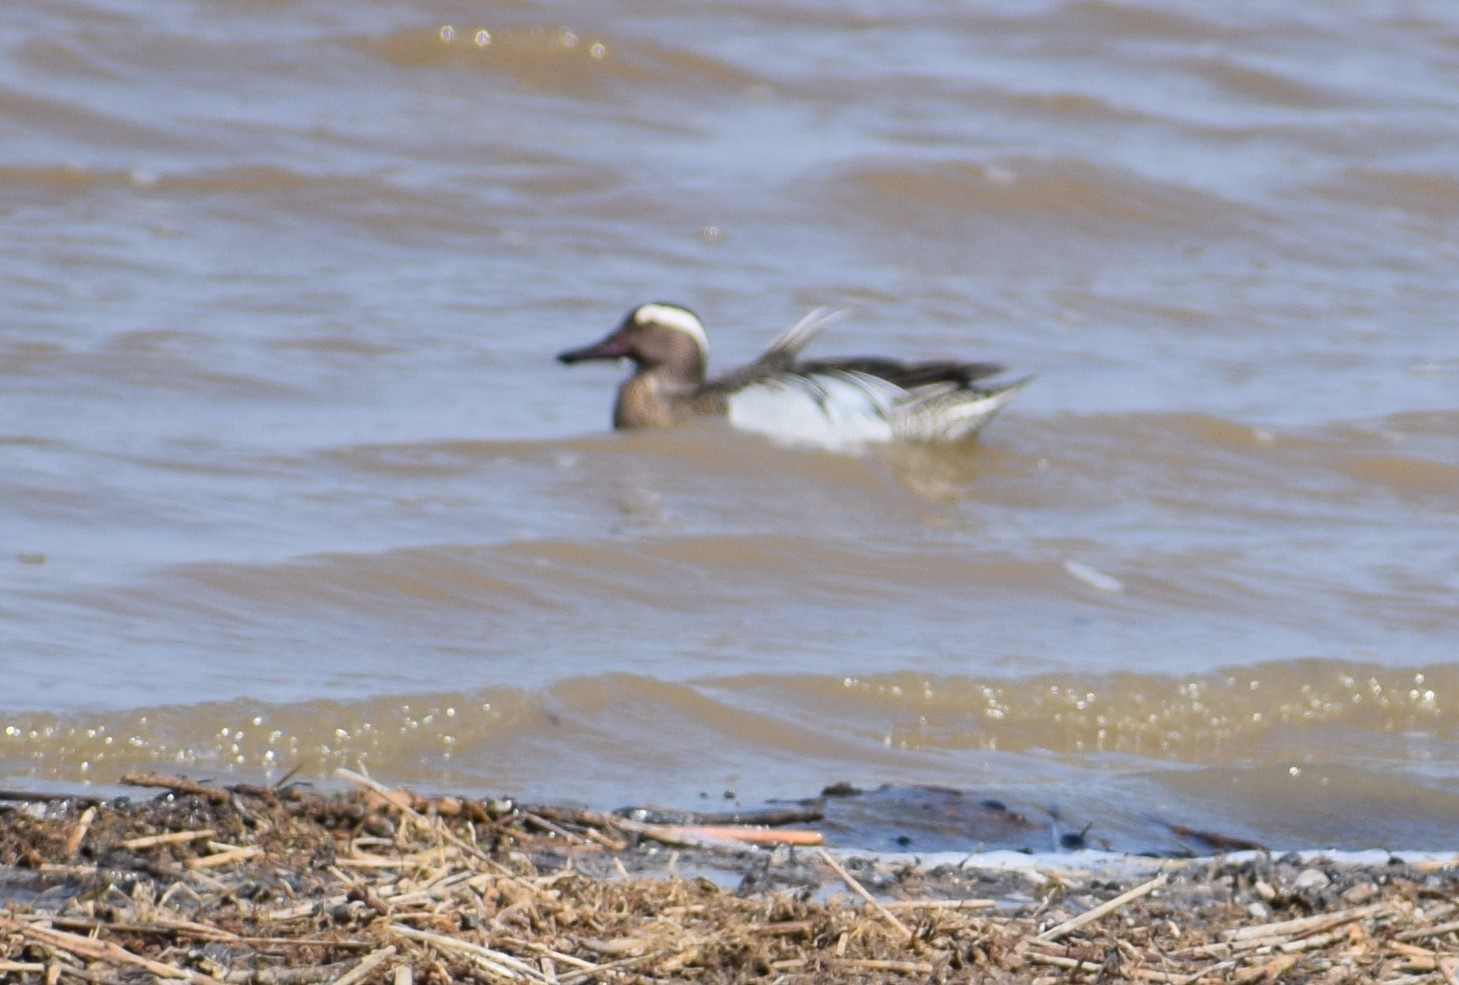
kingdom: Animalia
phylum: Chordata
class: Aves
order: Anseriformes
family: Anatidae
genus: Spatula
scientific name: Spatula querquedula
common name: Garganey
